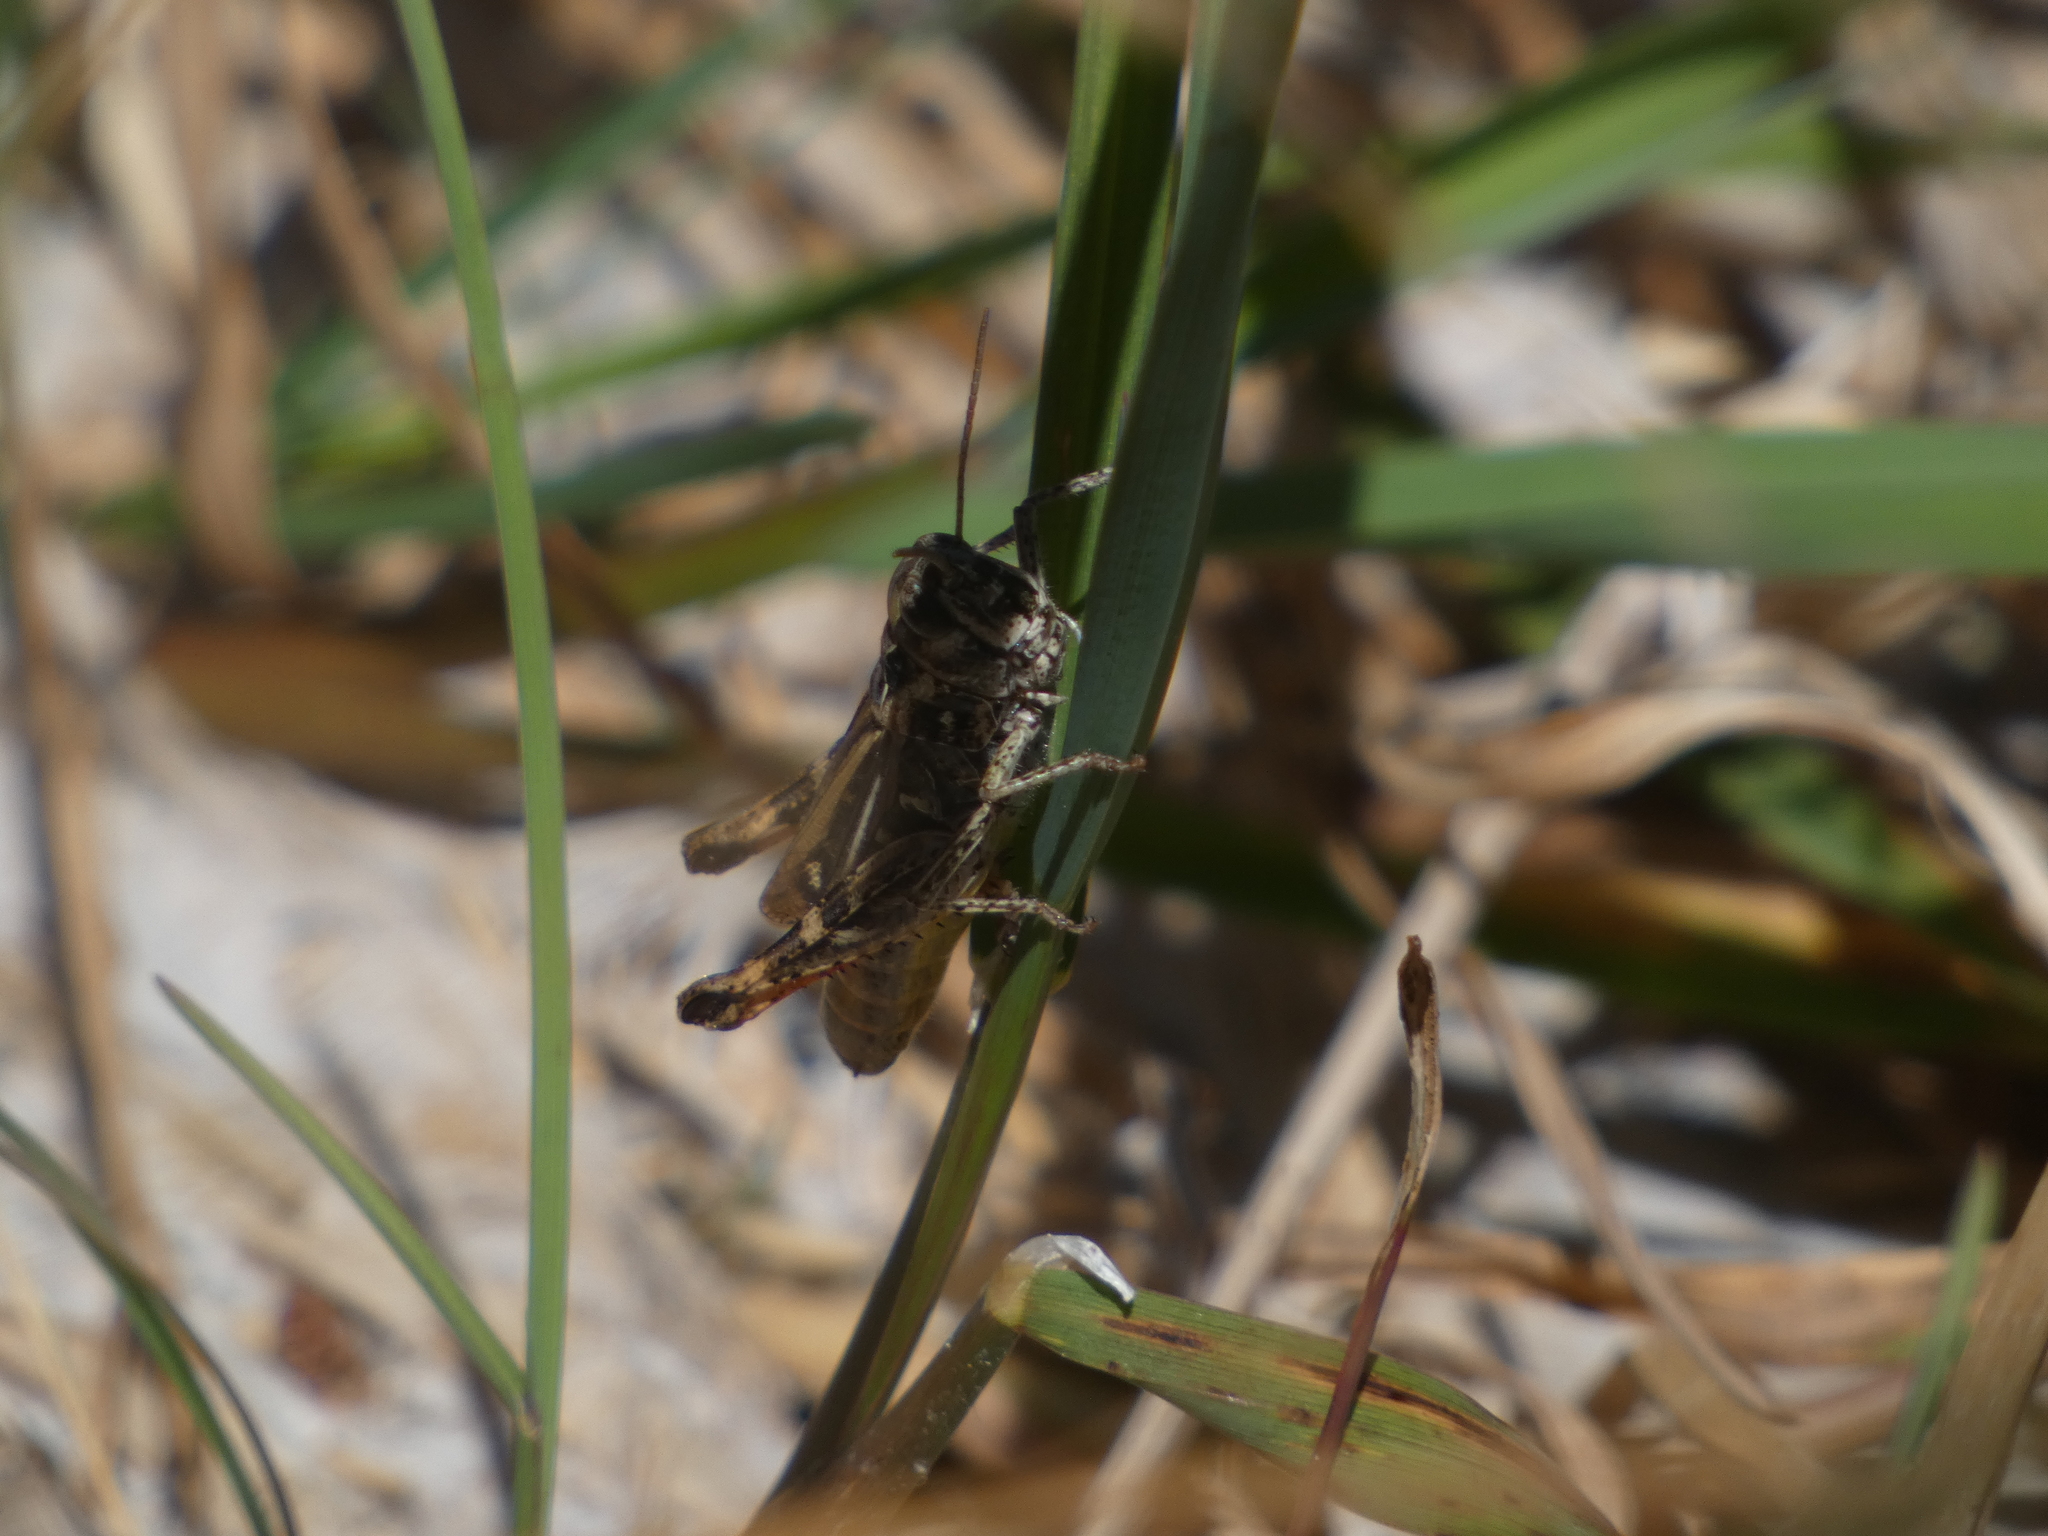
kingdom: Animalia
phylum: Arthropoda
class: Insecta
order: Orthoptera
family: Acrididae
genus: Chorthippus
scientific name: Chorthippus saulcyi
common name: French grasshopper
